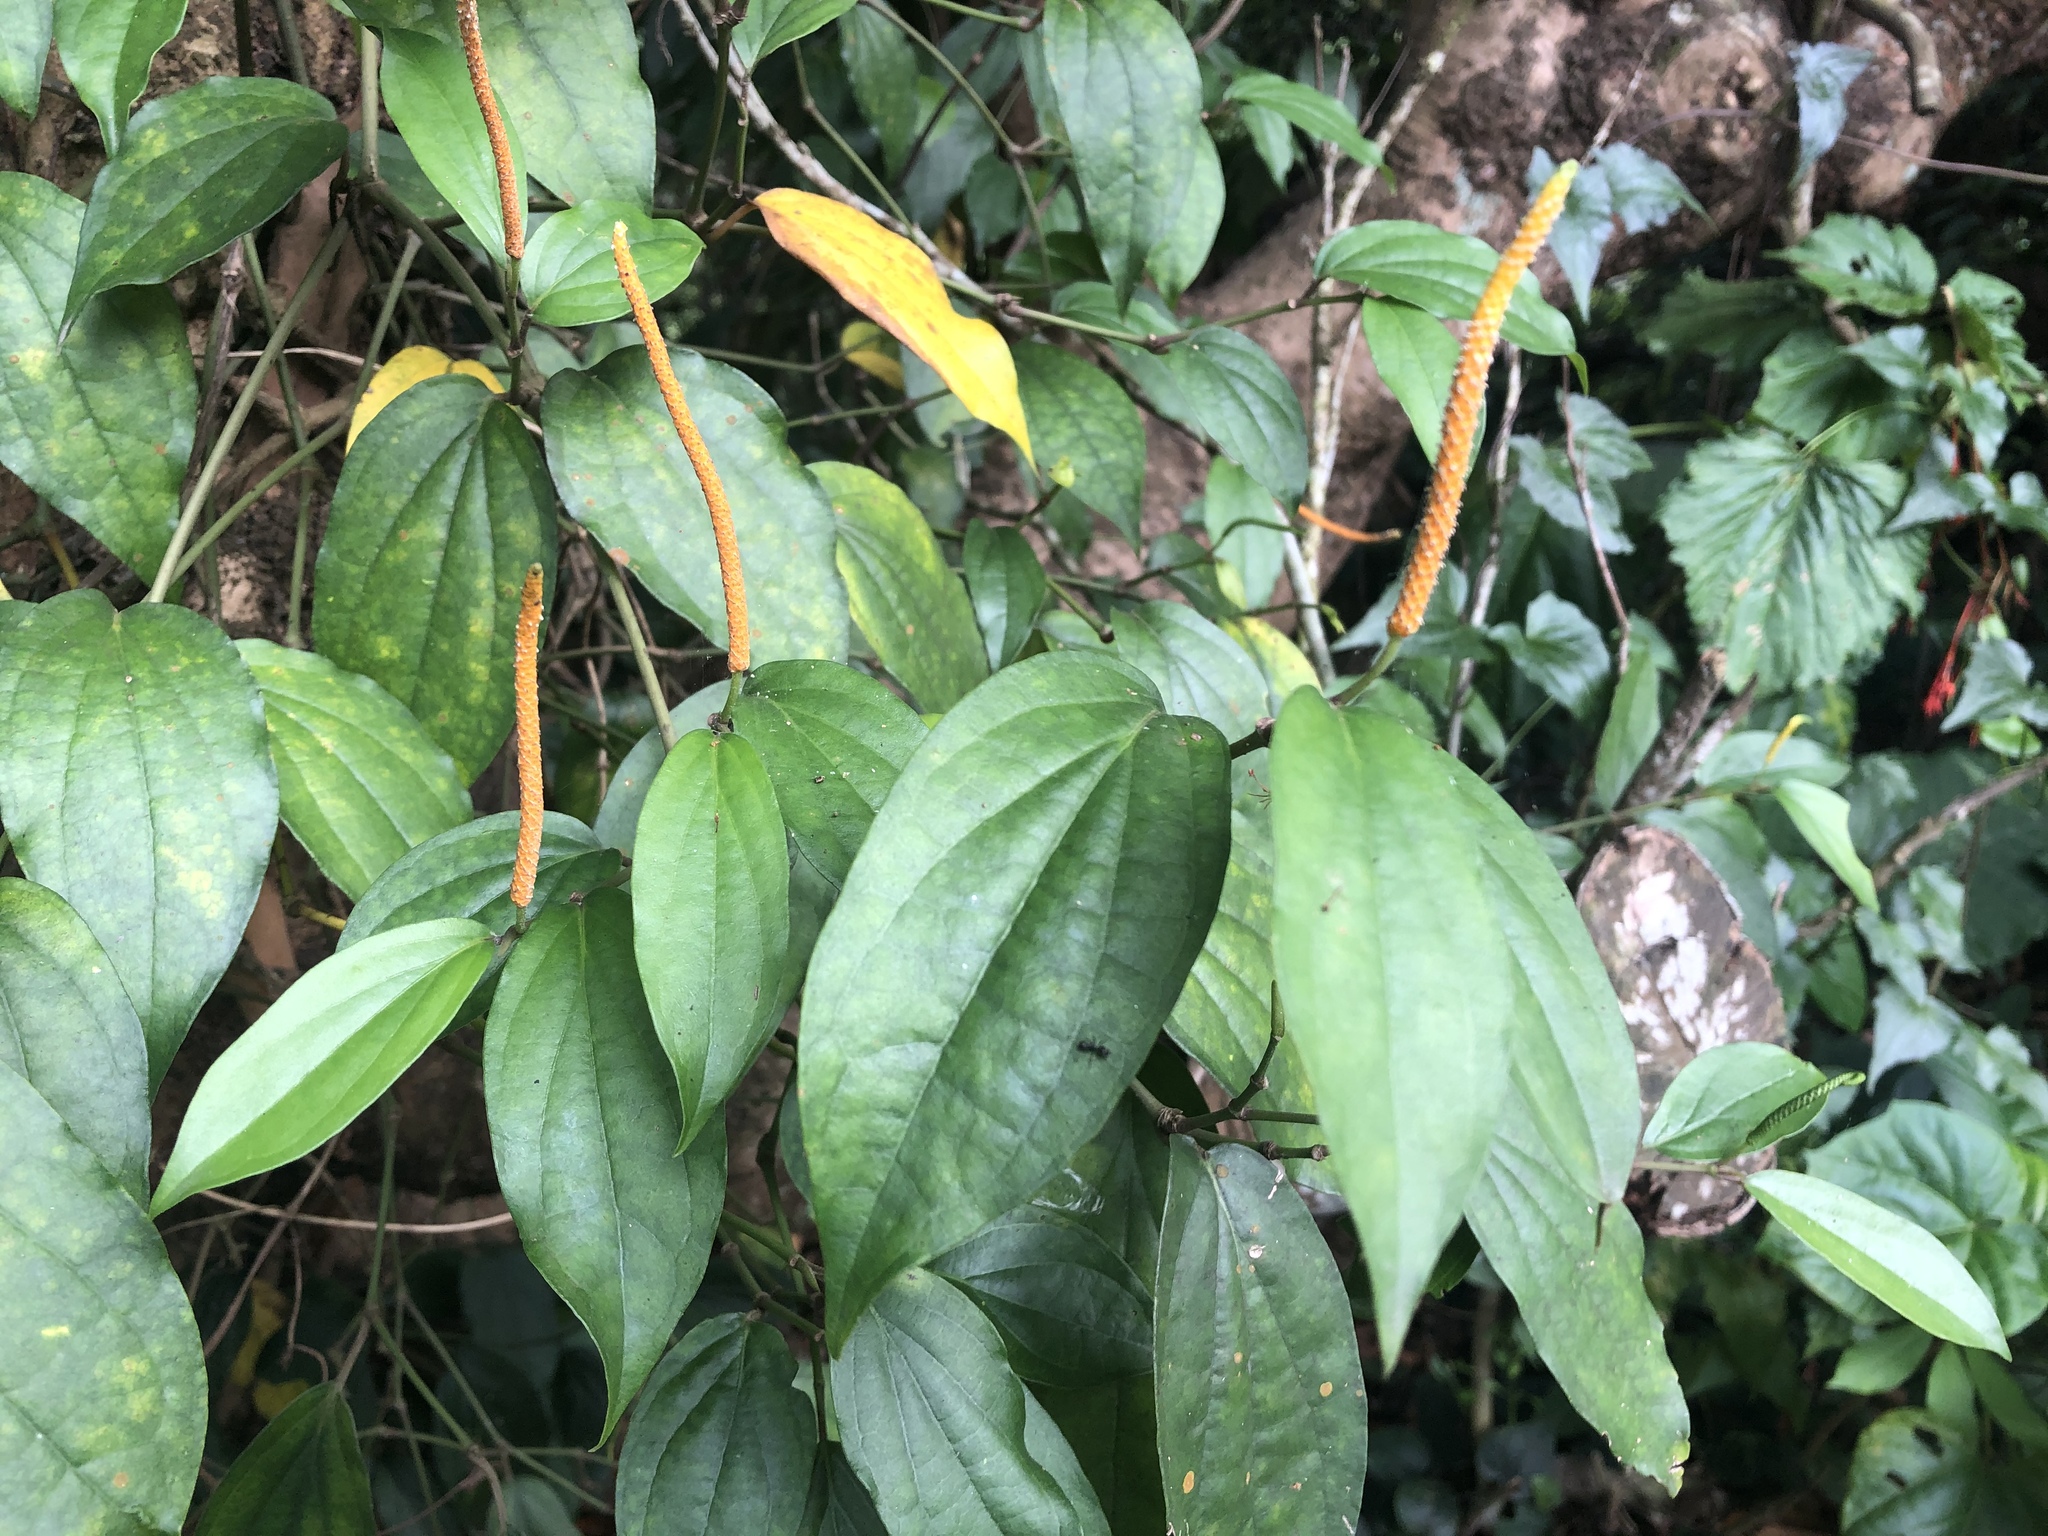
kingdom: Plantae
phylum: Tracheophyta
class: Magnoliopsida
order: Piperales
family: Piperaceae
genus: Piper
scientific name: Piper kadsura
